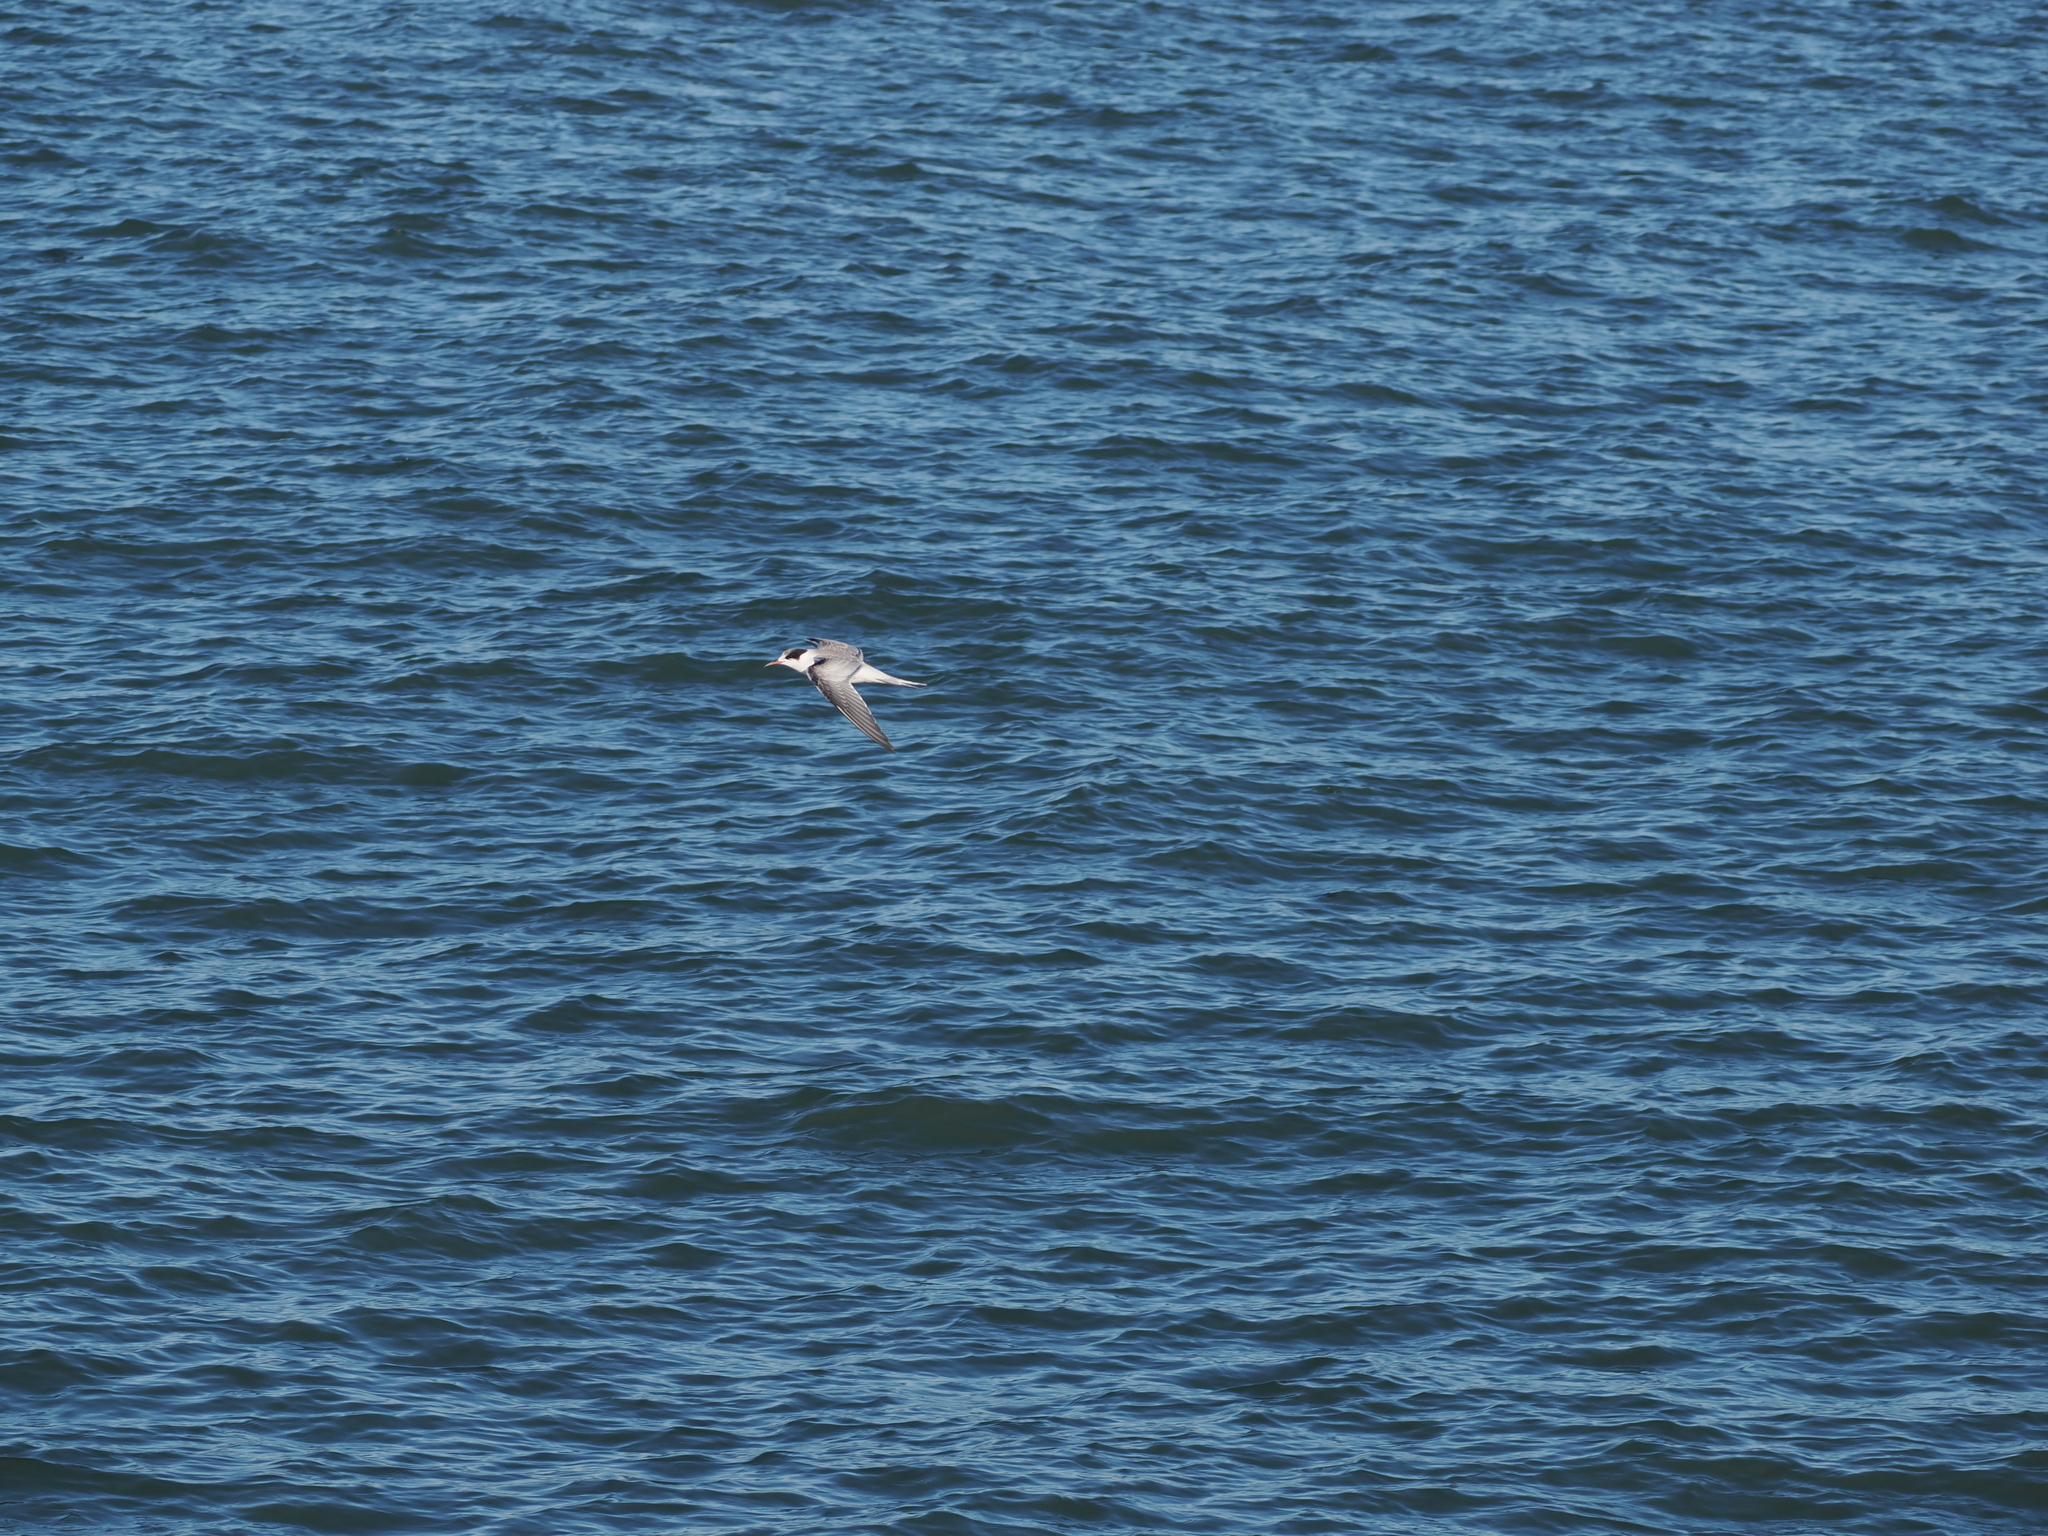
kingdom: Animalia
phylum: Chordata
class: Aves
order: Charadriiformes
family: Laridae
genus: Sterna
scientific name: Sterna hirundo
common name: Common tern
